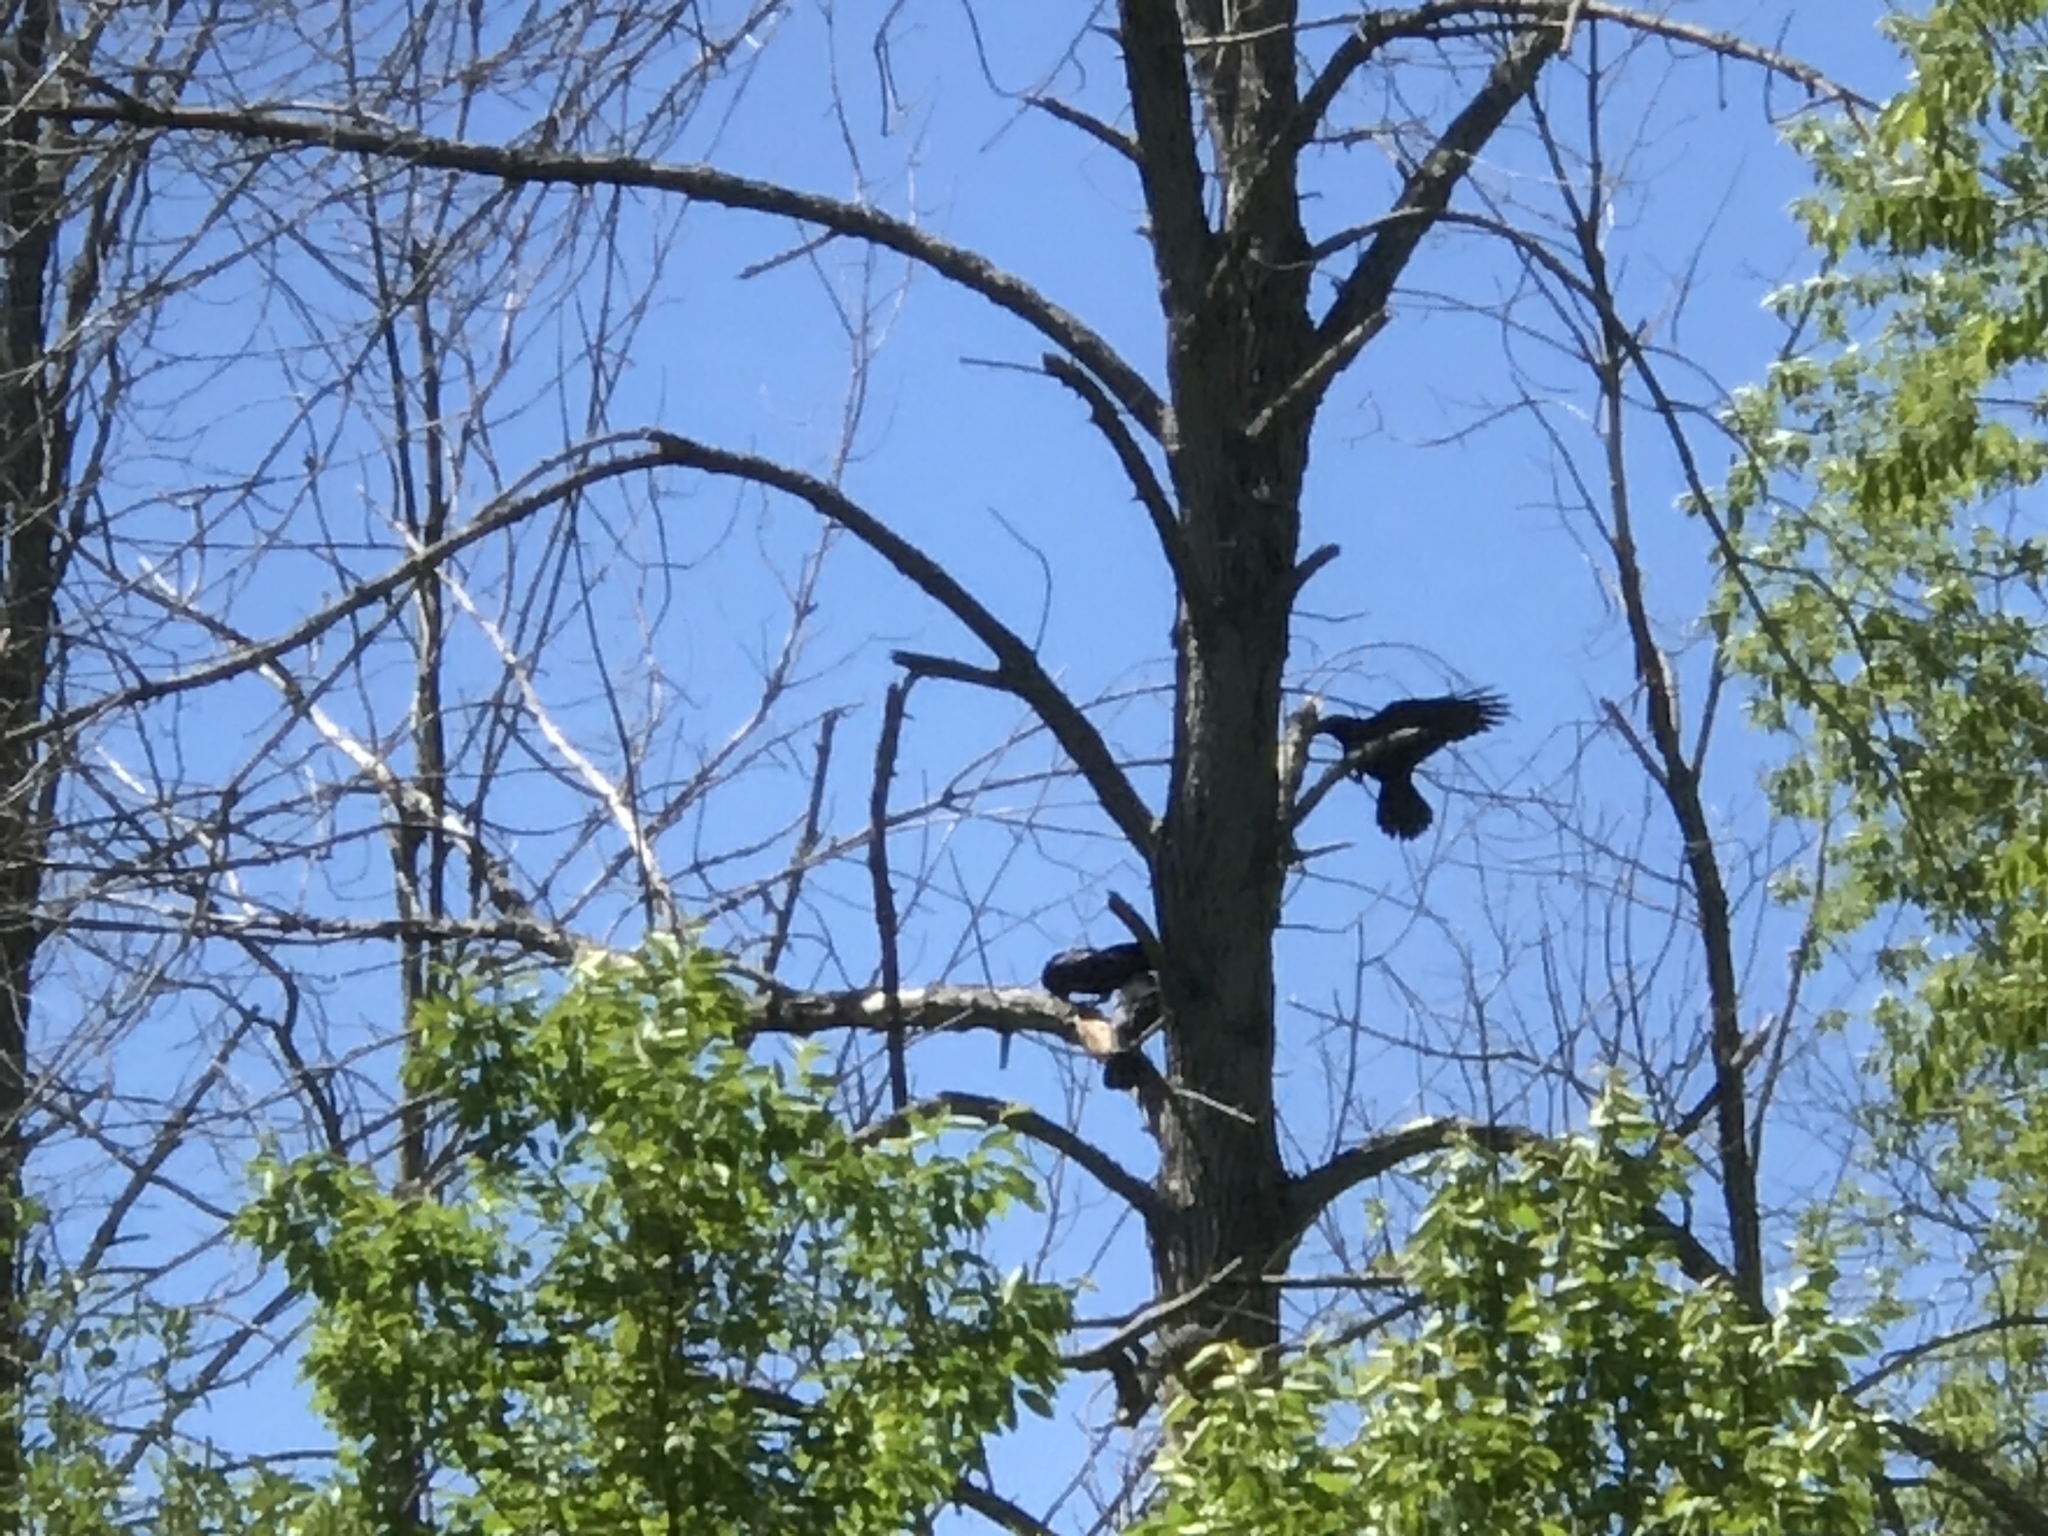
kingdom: Animalia
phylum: Chordata
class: Aves
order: Passeriformes
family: Corvidae
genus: Corvus
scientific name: Corvus brachyrhynchos
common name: American crow
